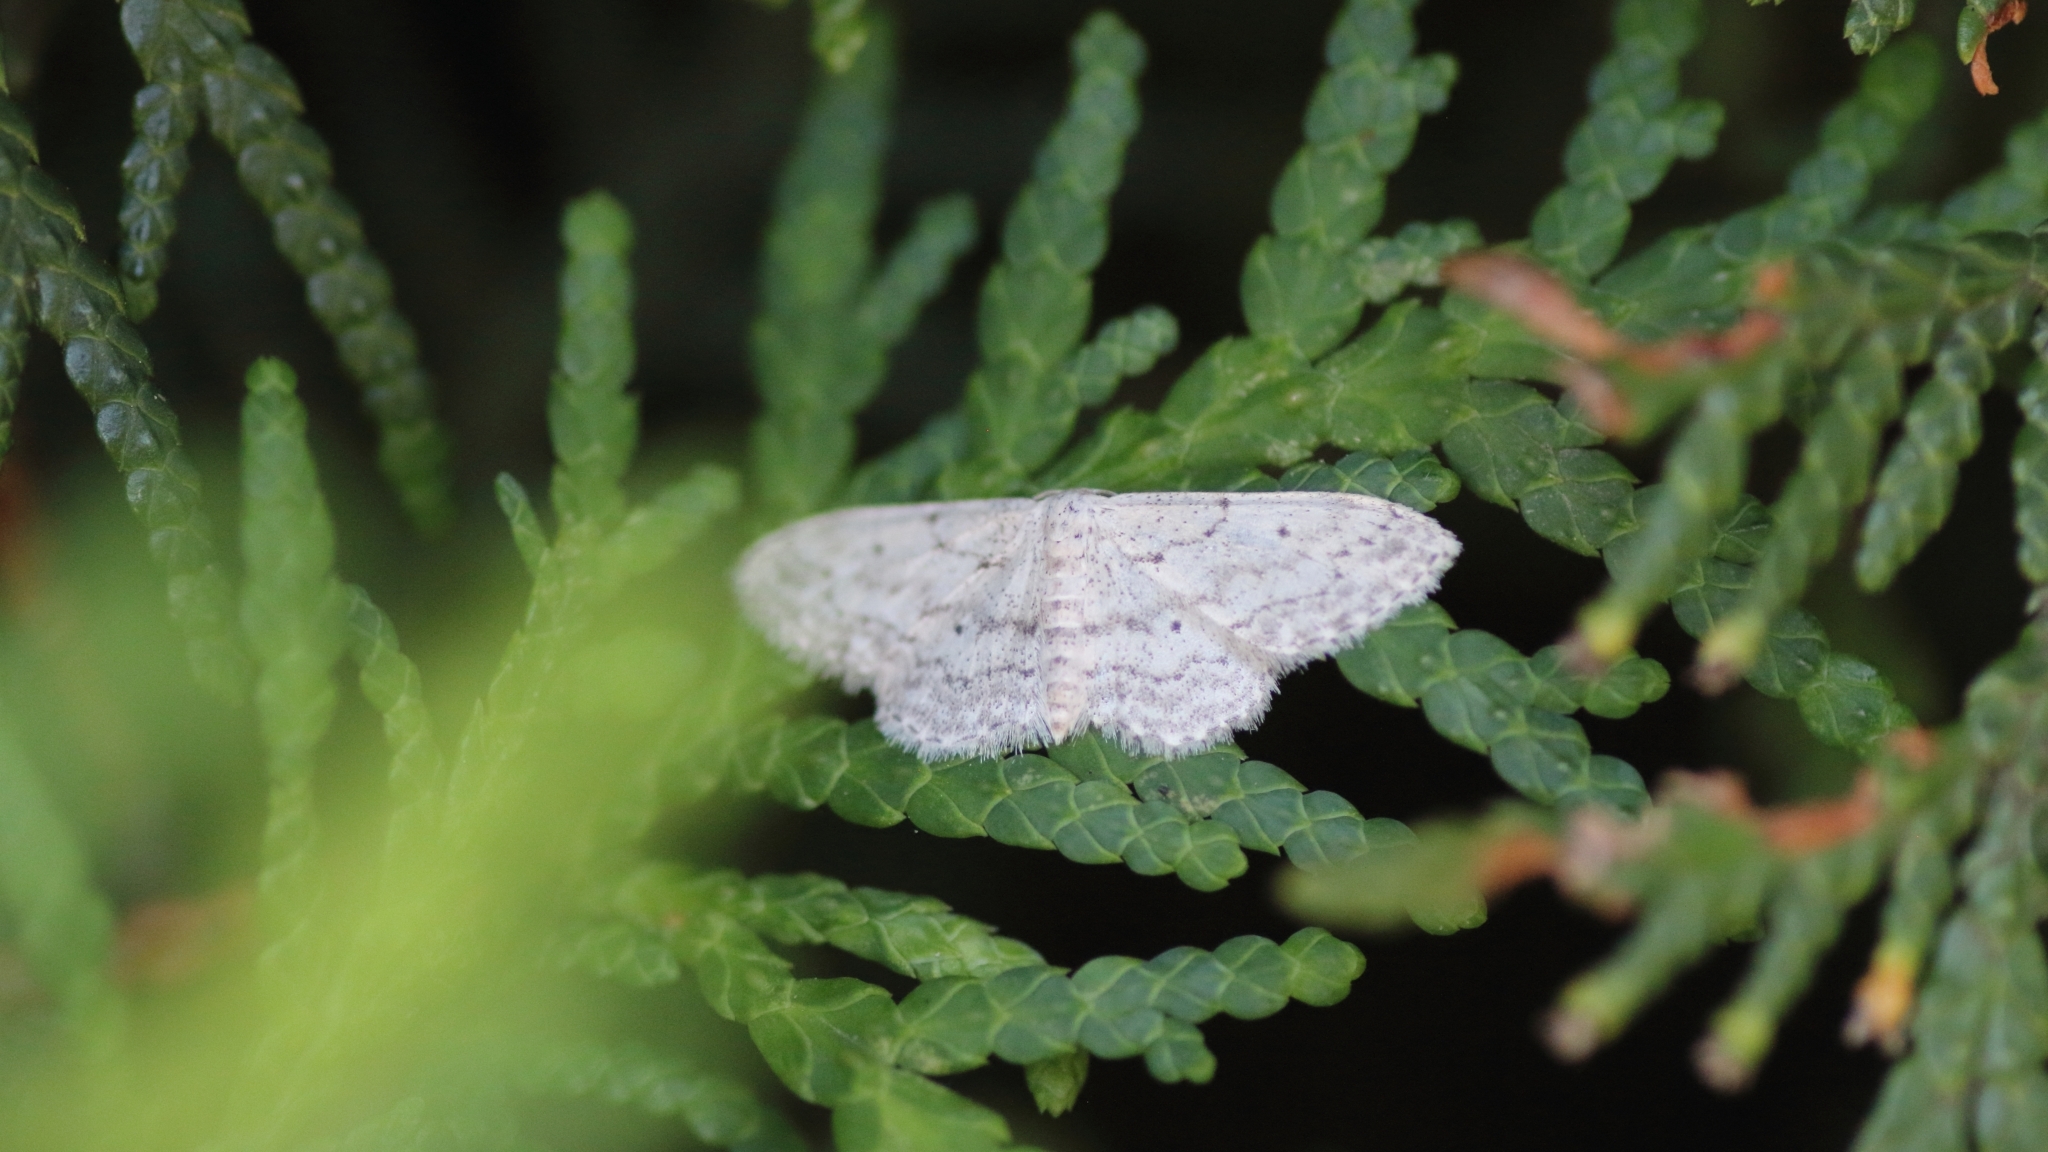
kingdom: Animalia
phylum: Arthropoda
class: Insecta
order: Lepidoptera
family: Geometridae
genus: Idaea
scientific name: Idaea seriata
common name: Small dusty wave
